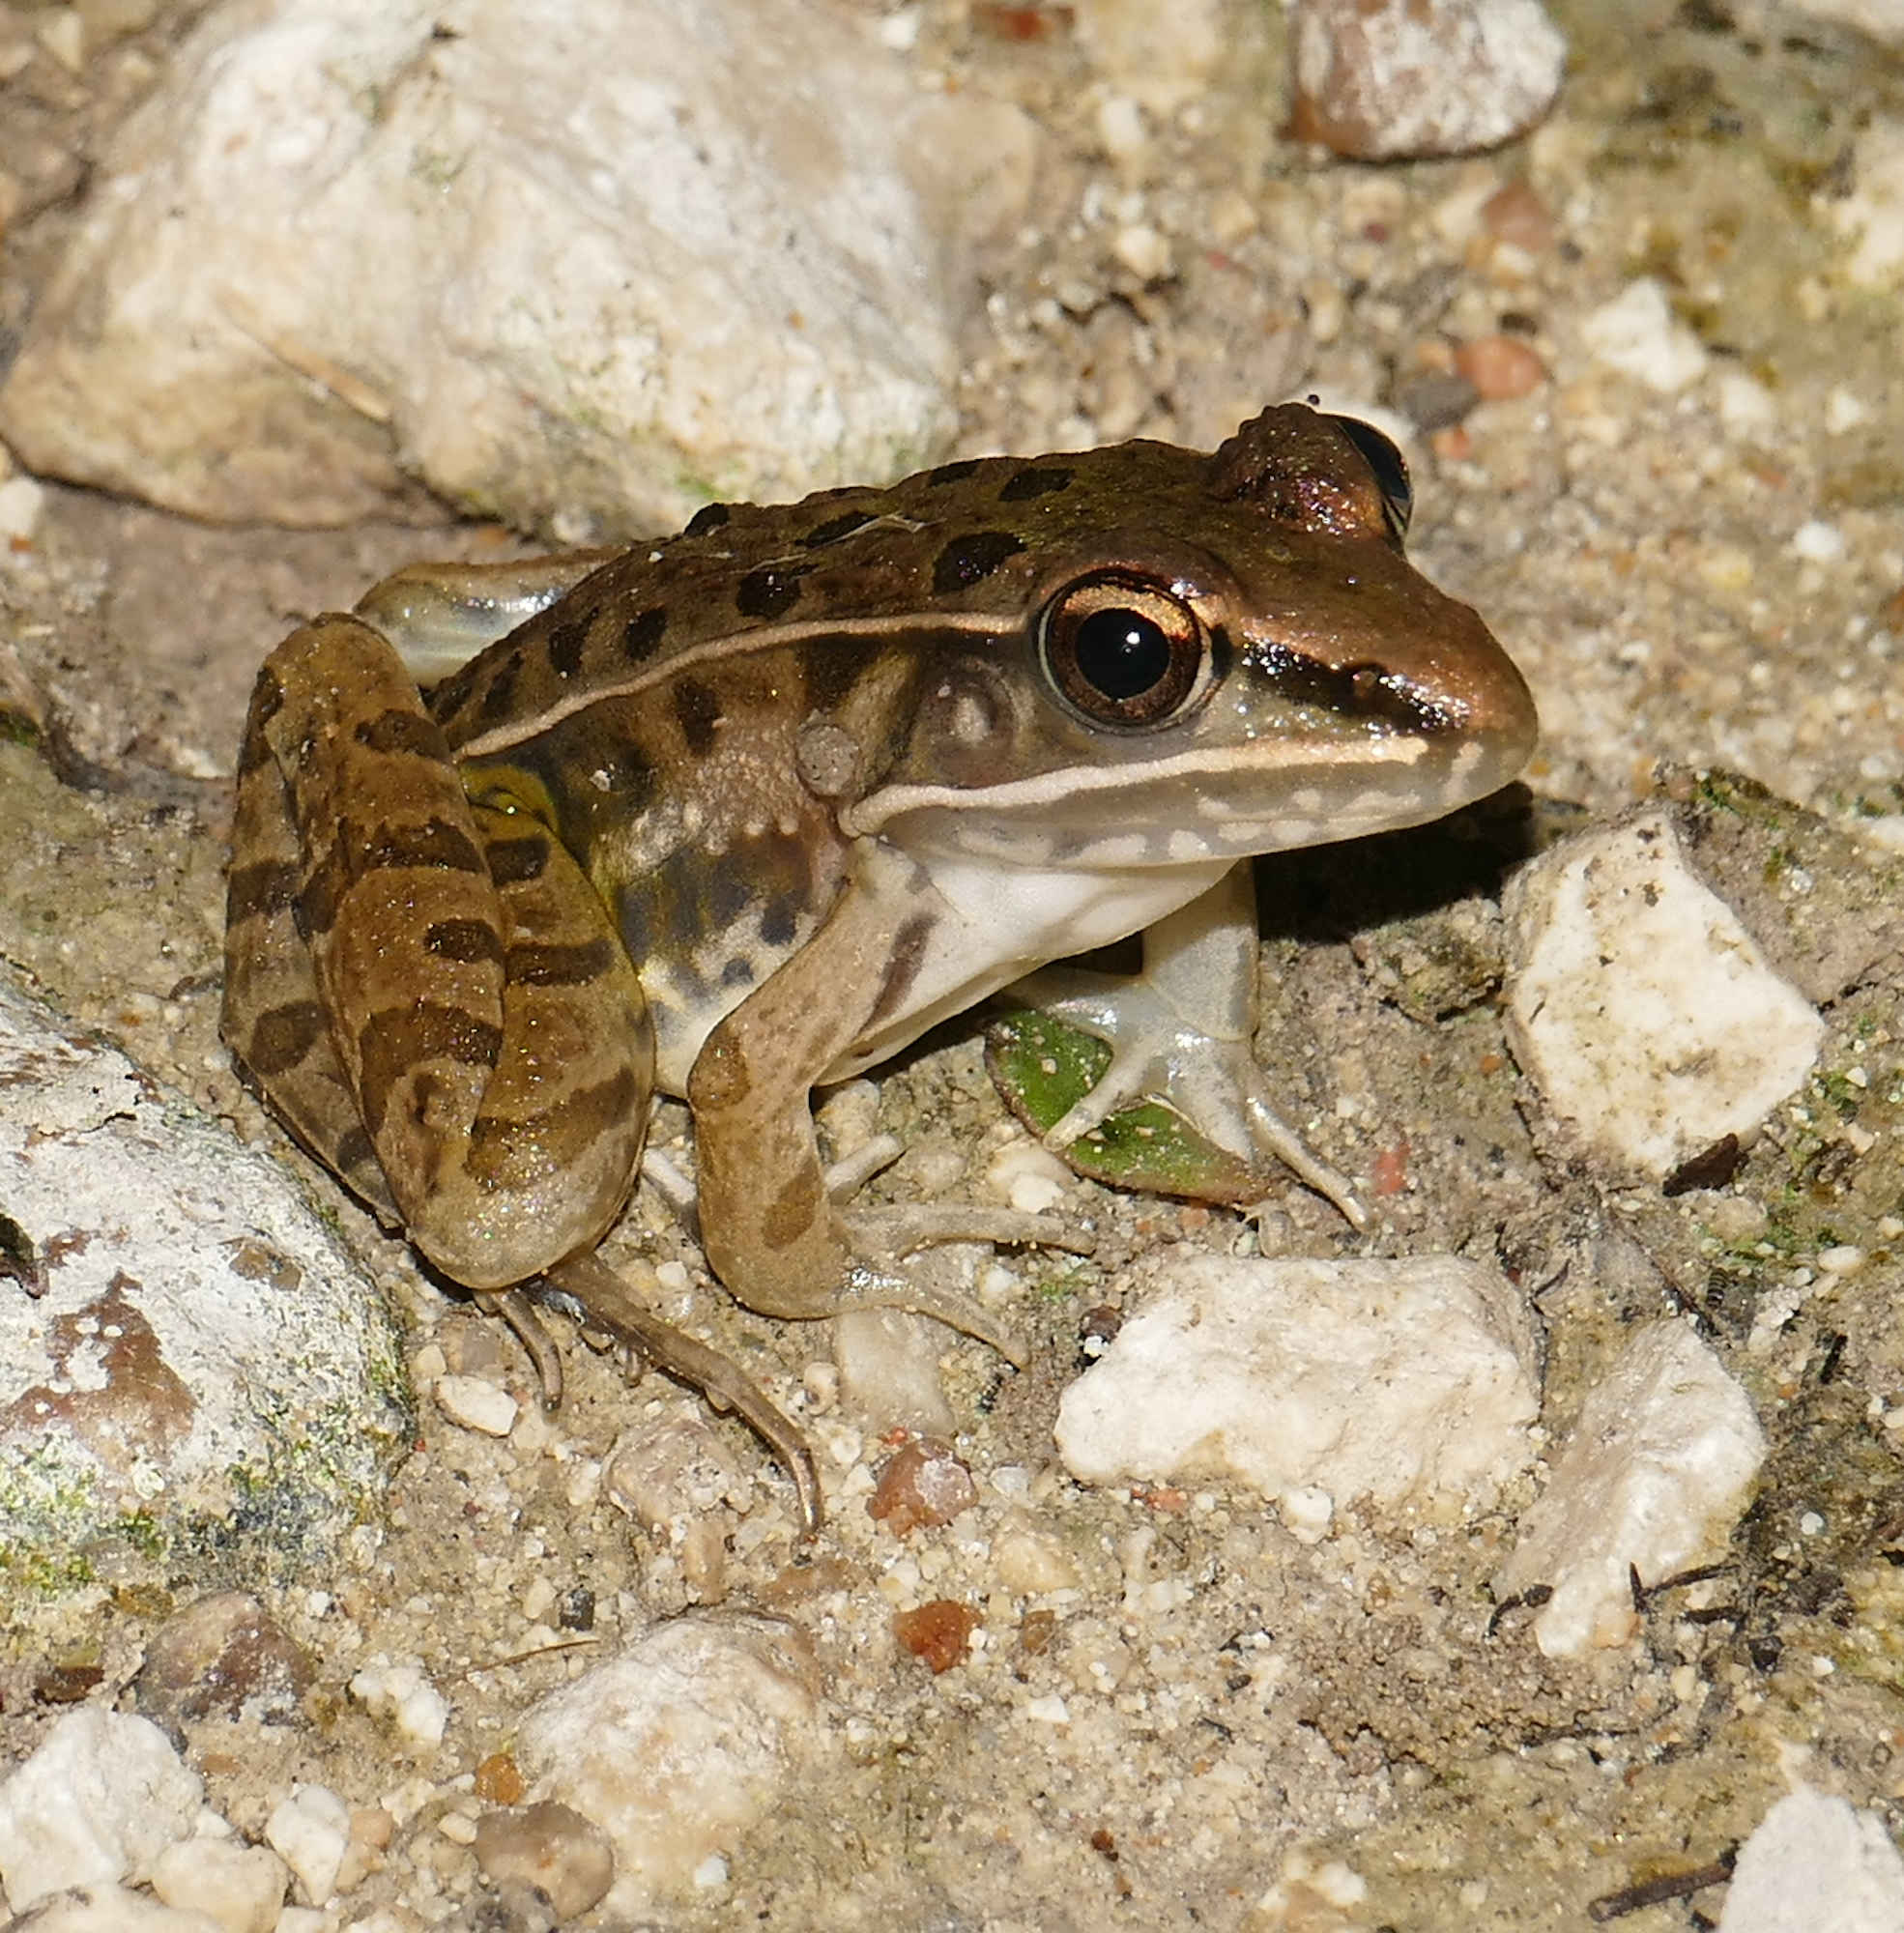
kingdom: Animalia
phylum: Chordata
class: Amphibia
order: Anura
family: Ranidae
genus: Lithobates
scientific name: Lithobates sphenocephalus
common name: Southern leopard frog
